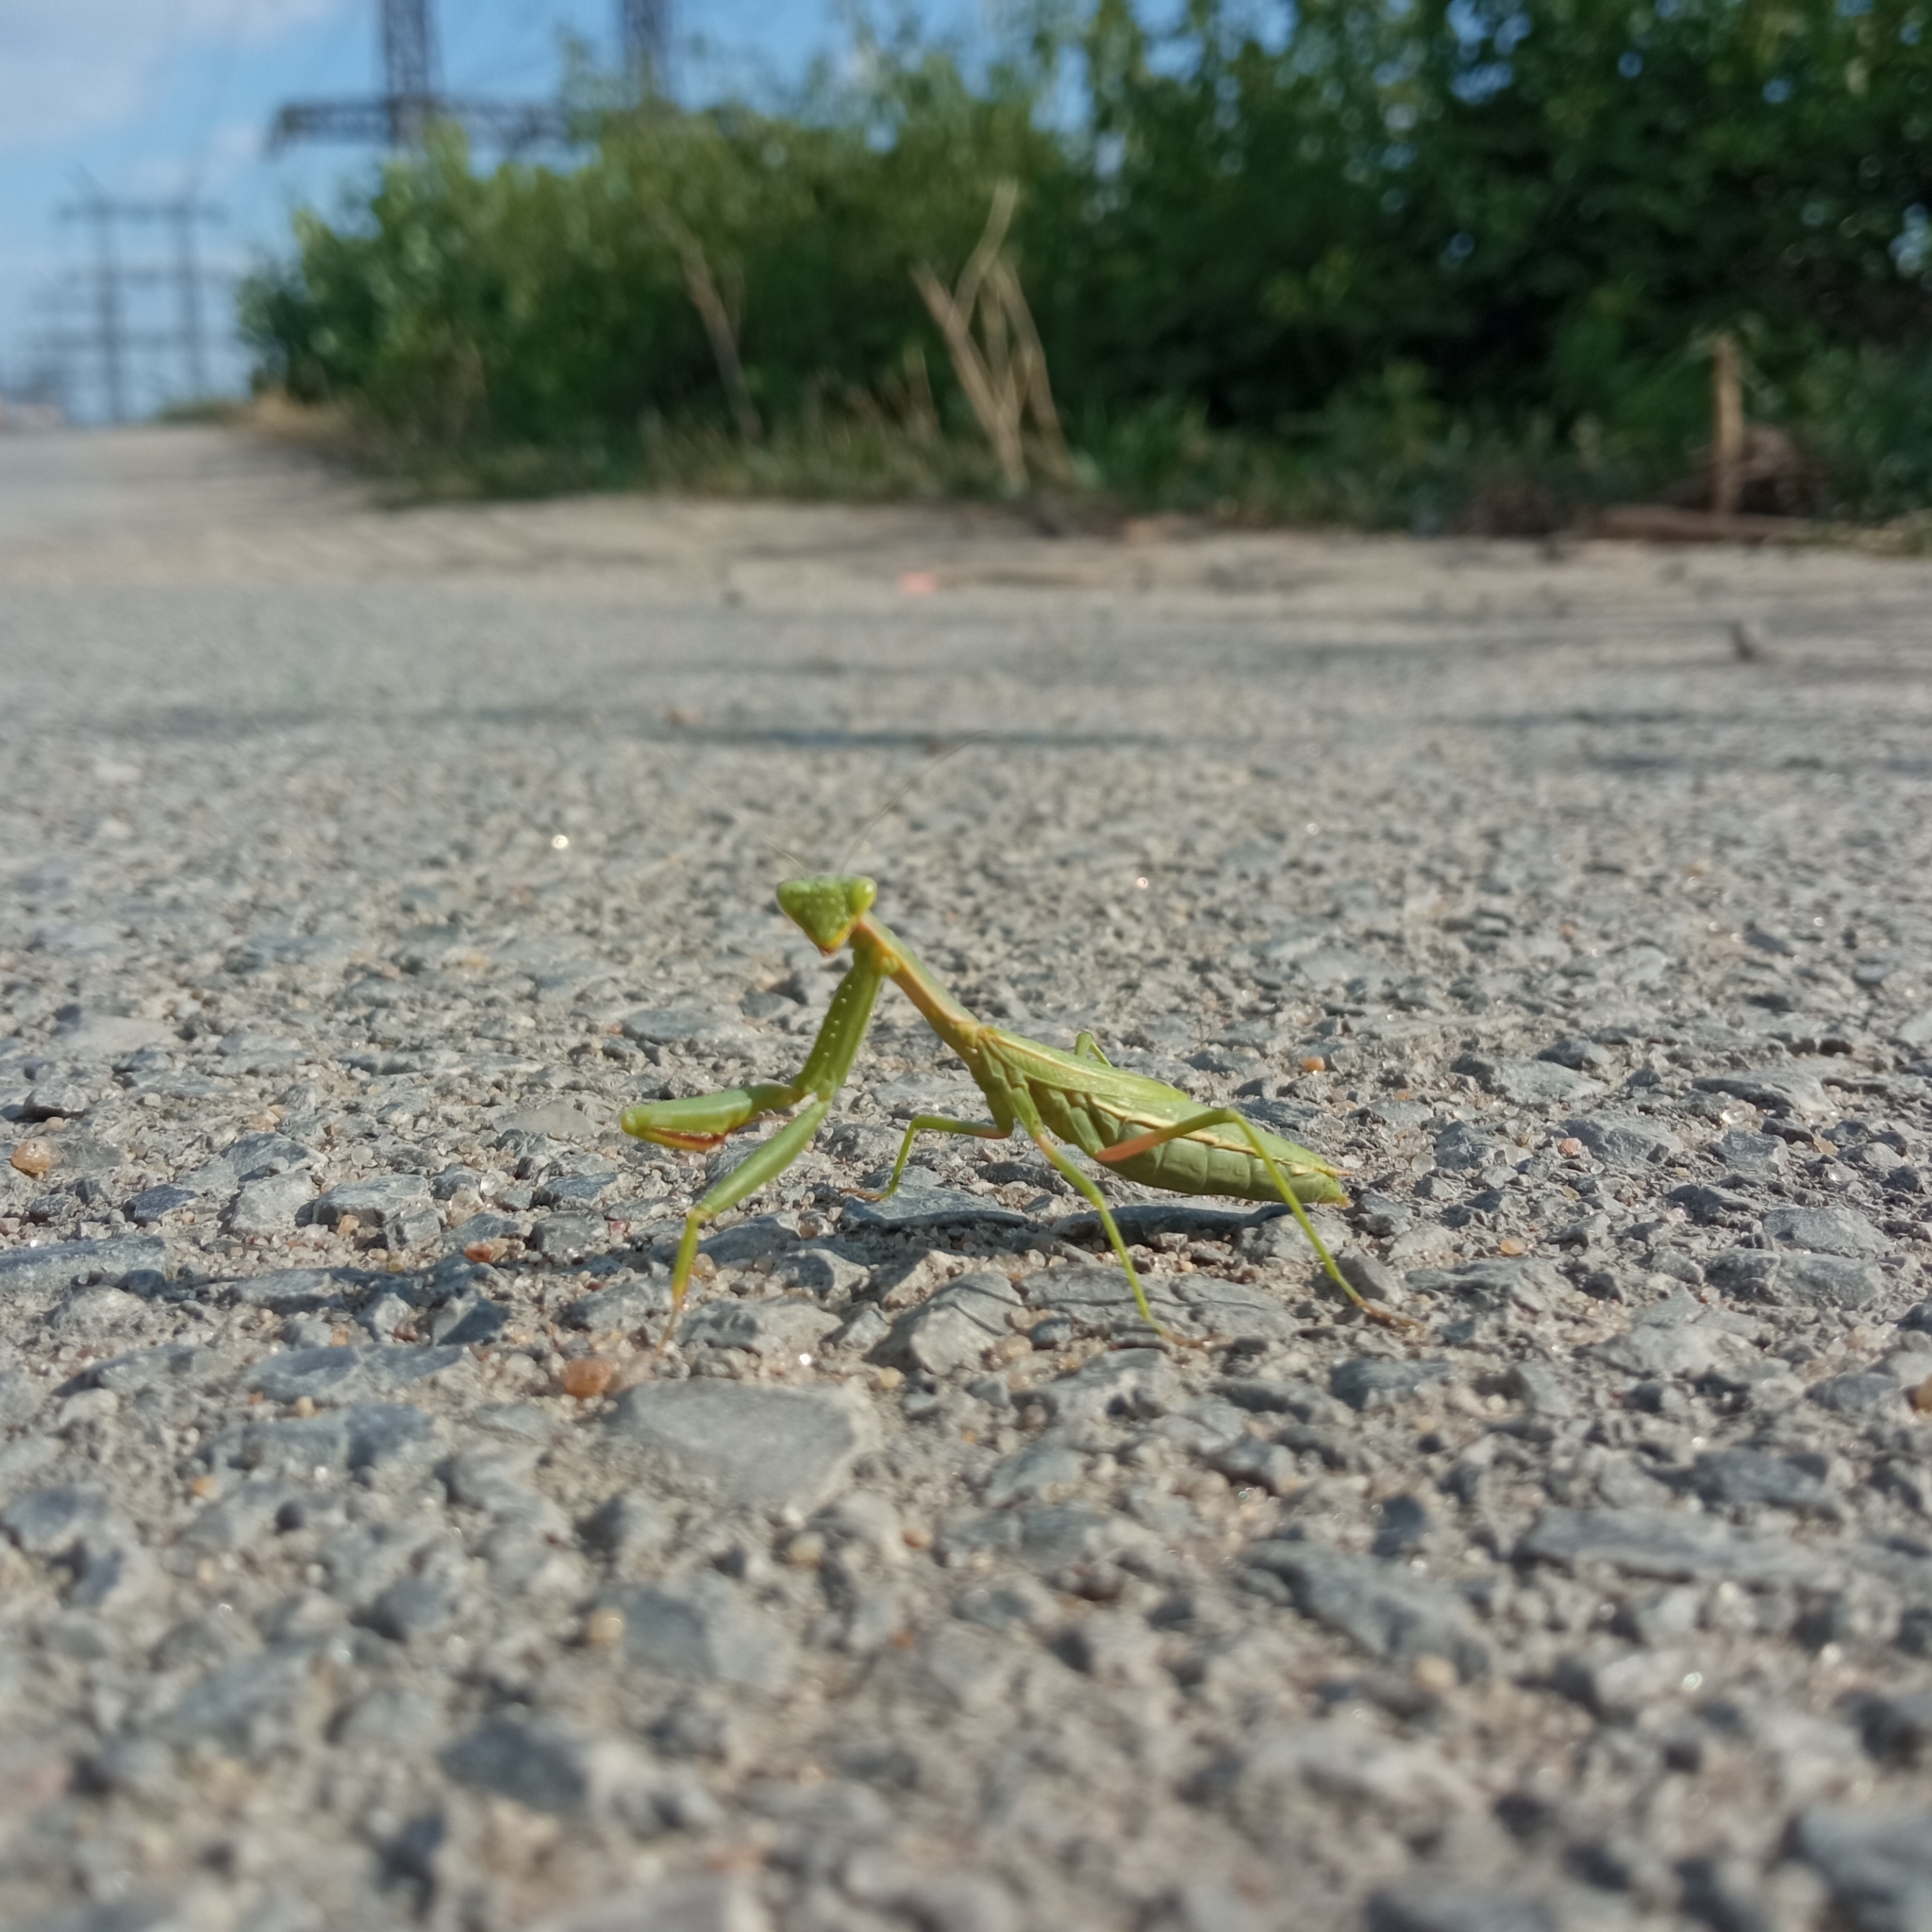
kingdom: Animalia
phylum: Arthropoda
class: Insecta
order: Mantodea
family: Eremiaphilidae
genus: Iris
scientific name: Iris polystictica
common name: Dot-winged mantis
